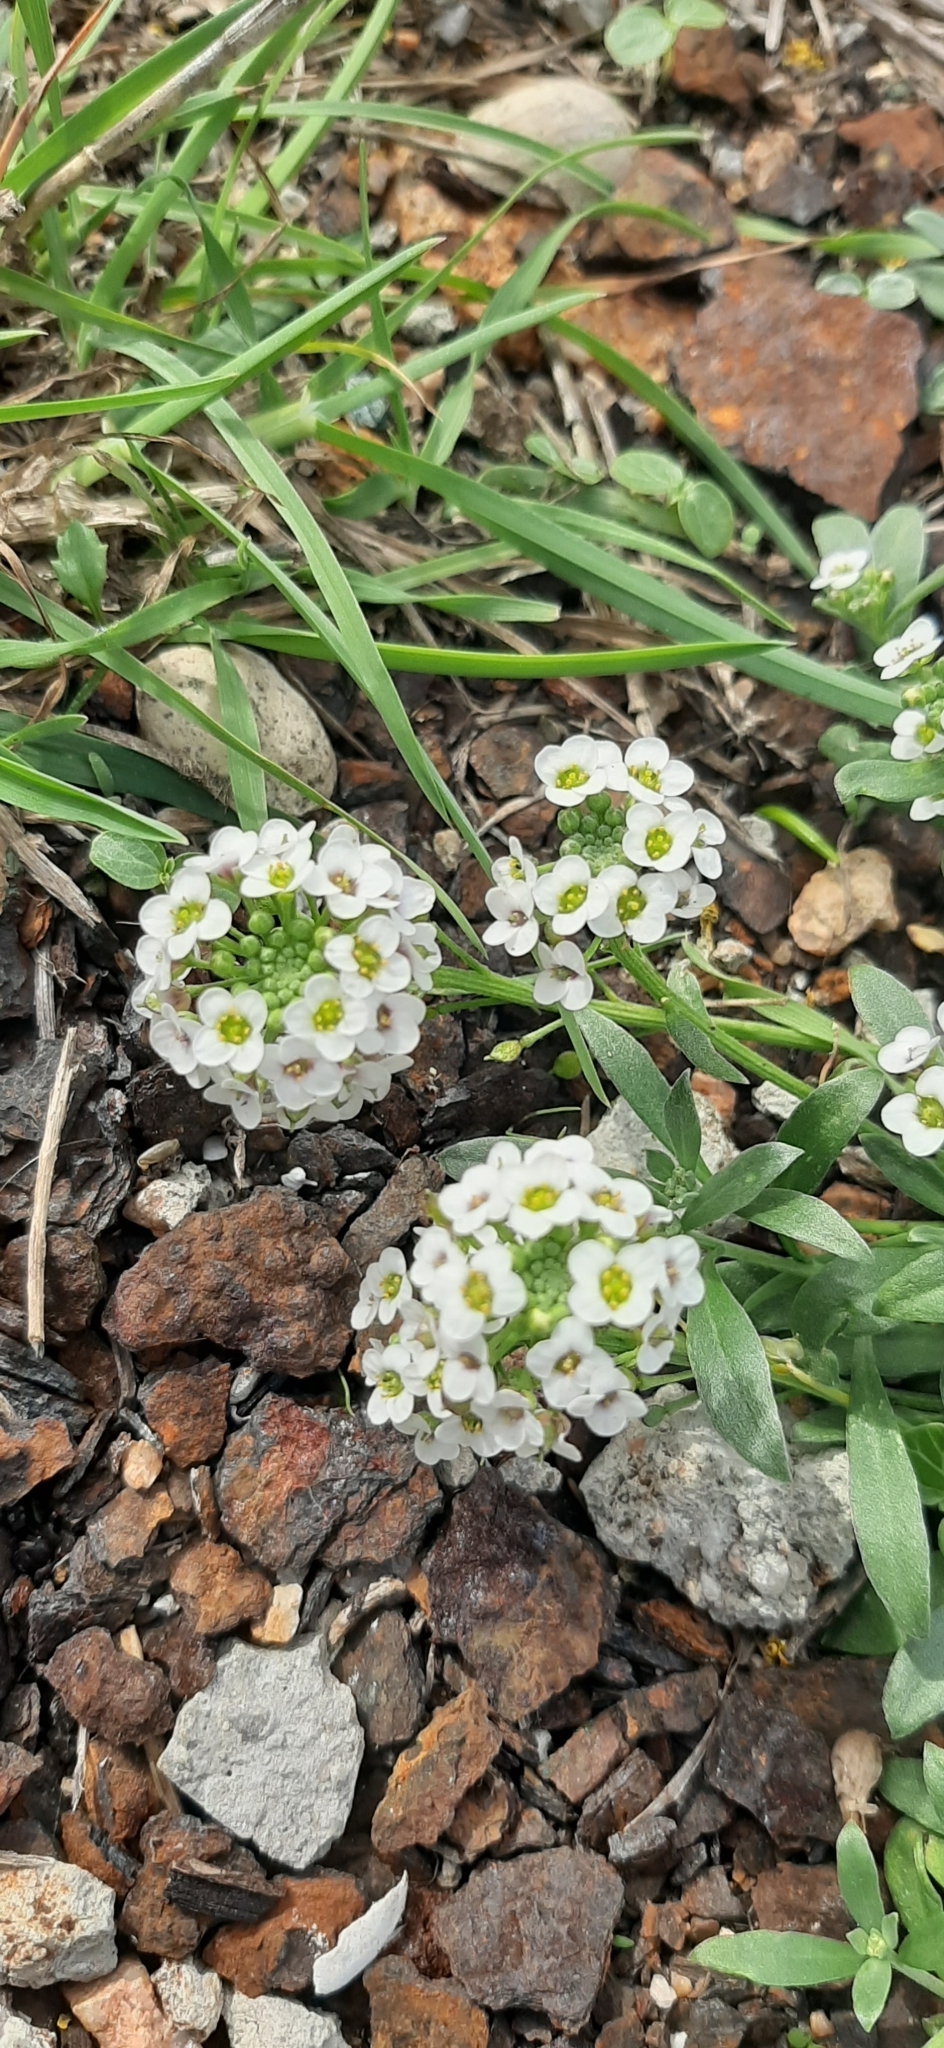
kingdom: Plantae
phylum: Tracheophyta
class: Magnoliopsida
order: Brassicales
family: Brassicaceae
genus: Lobularia
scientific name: Lobularia maritima
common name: Sweet alison
